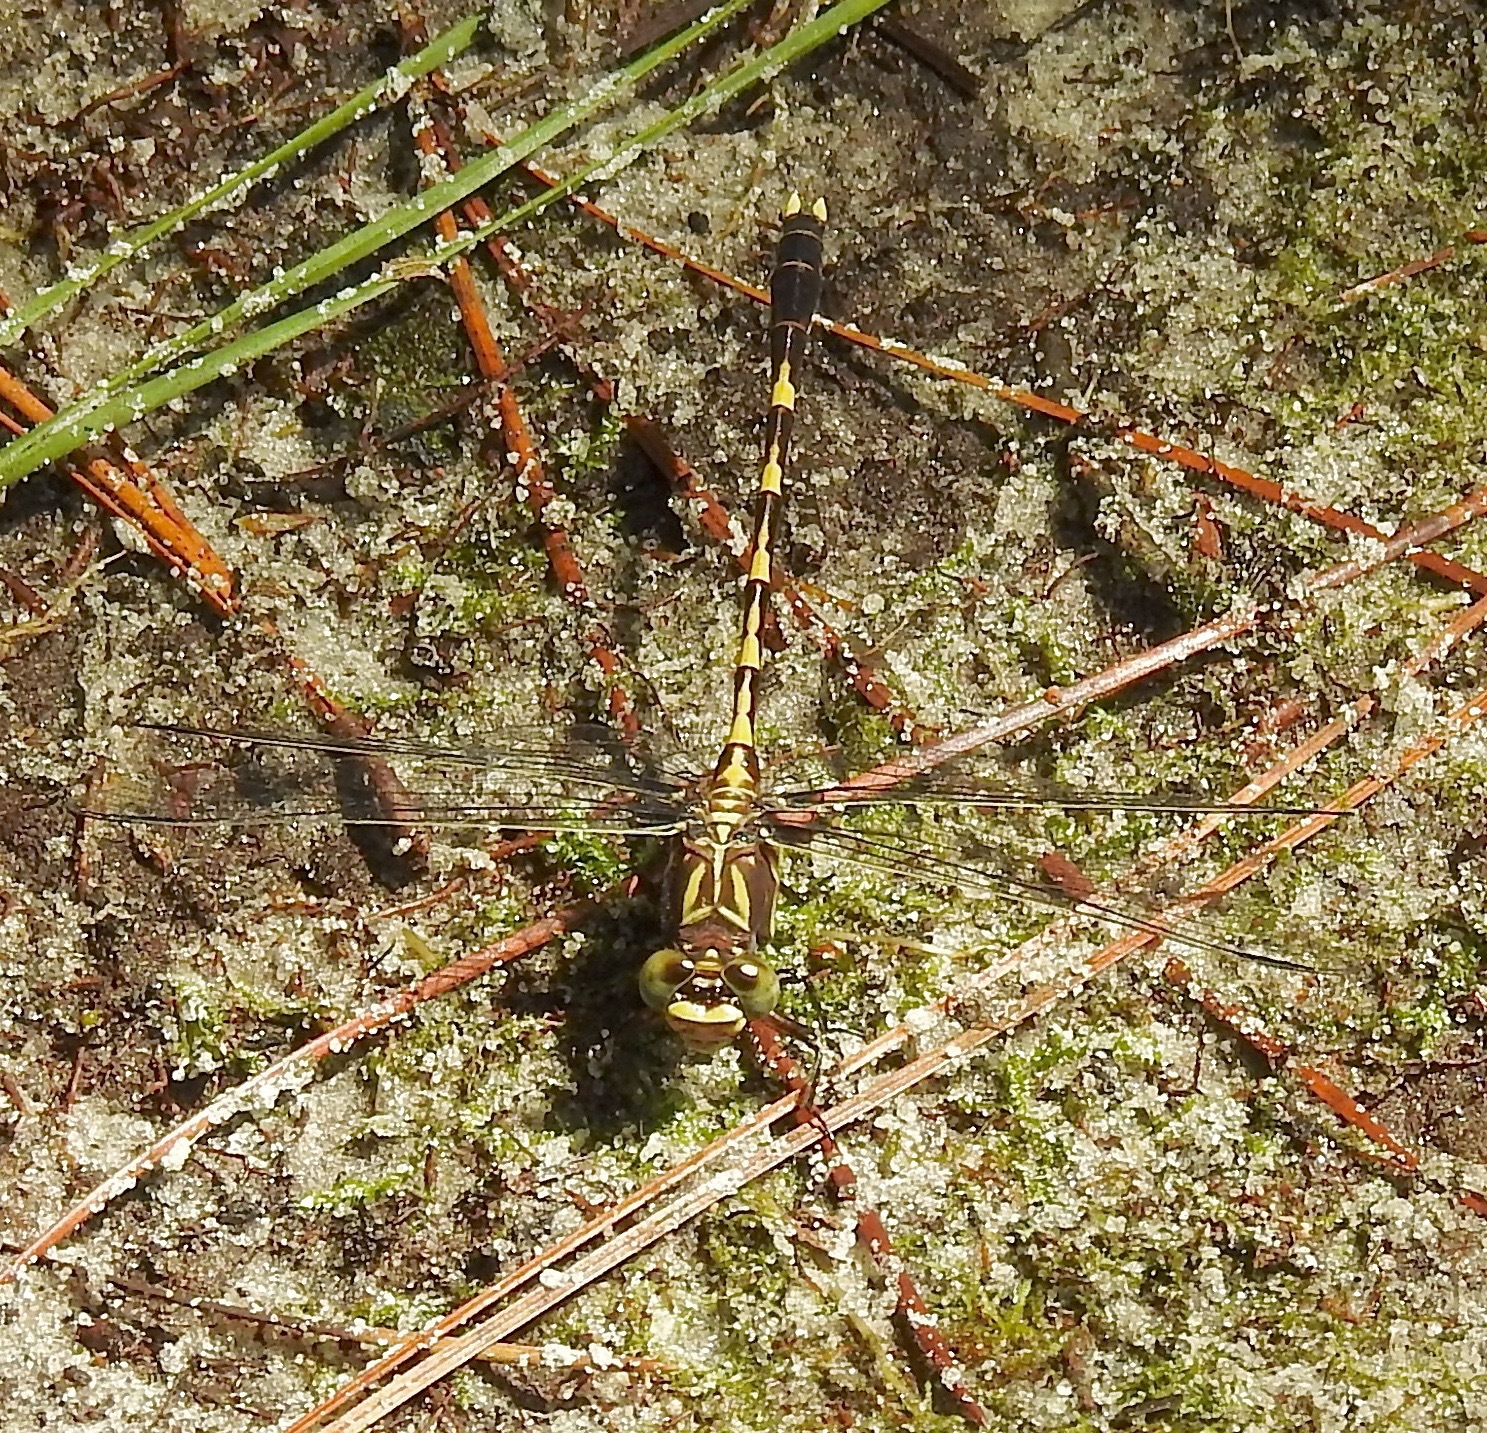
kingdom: Animalia
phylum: Arthropoda
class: Insecta
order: Odonata
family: Gomphidae
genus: Progomphus
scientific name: Progomphus obscurus
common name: Common sanddragon
